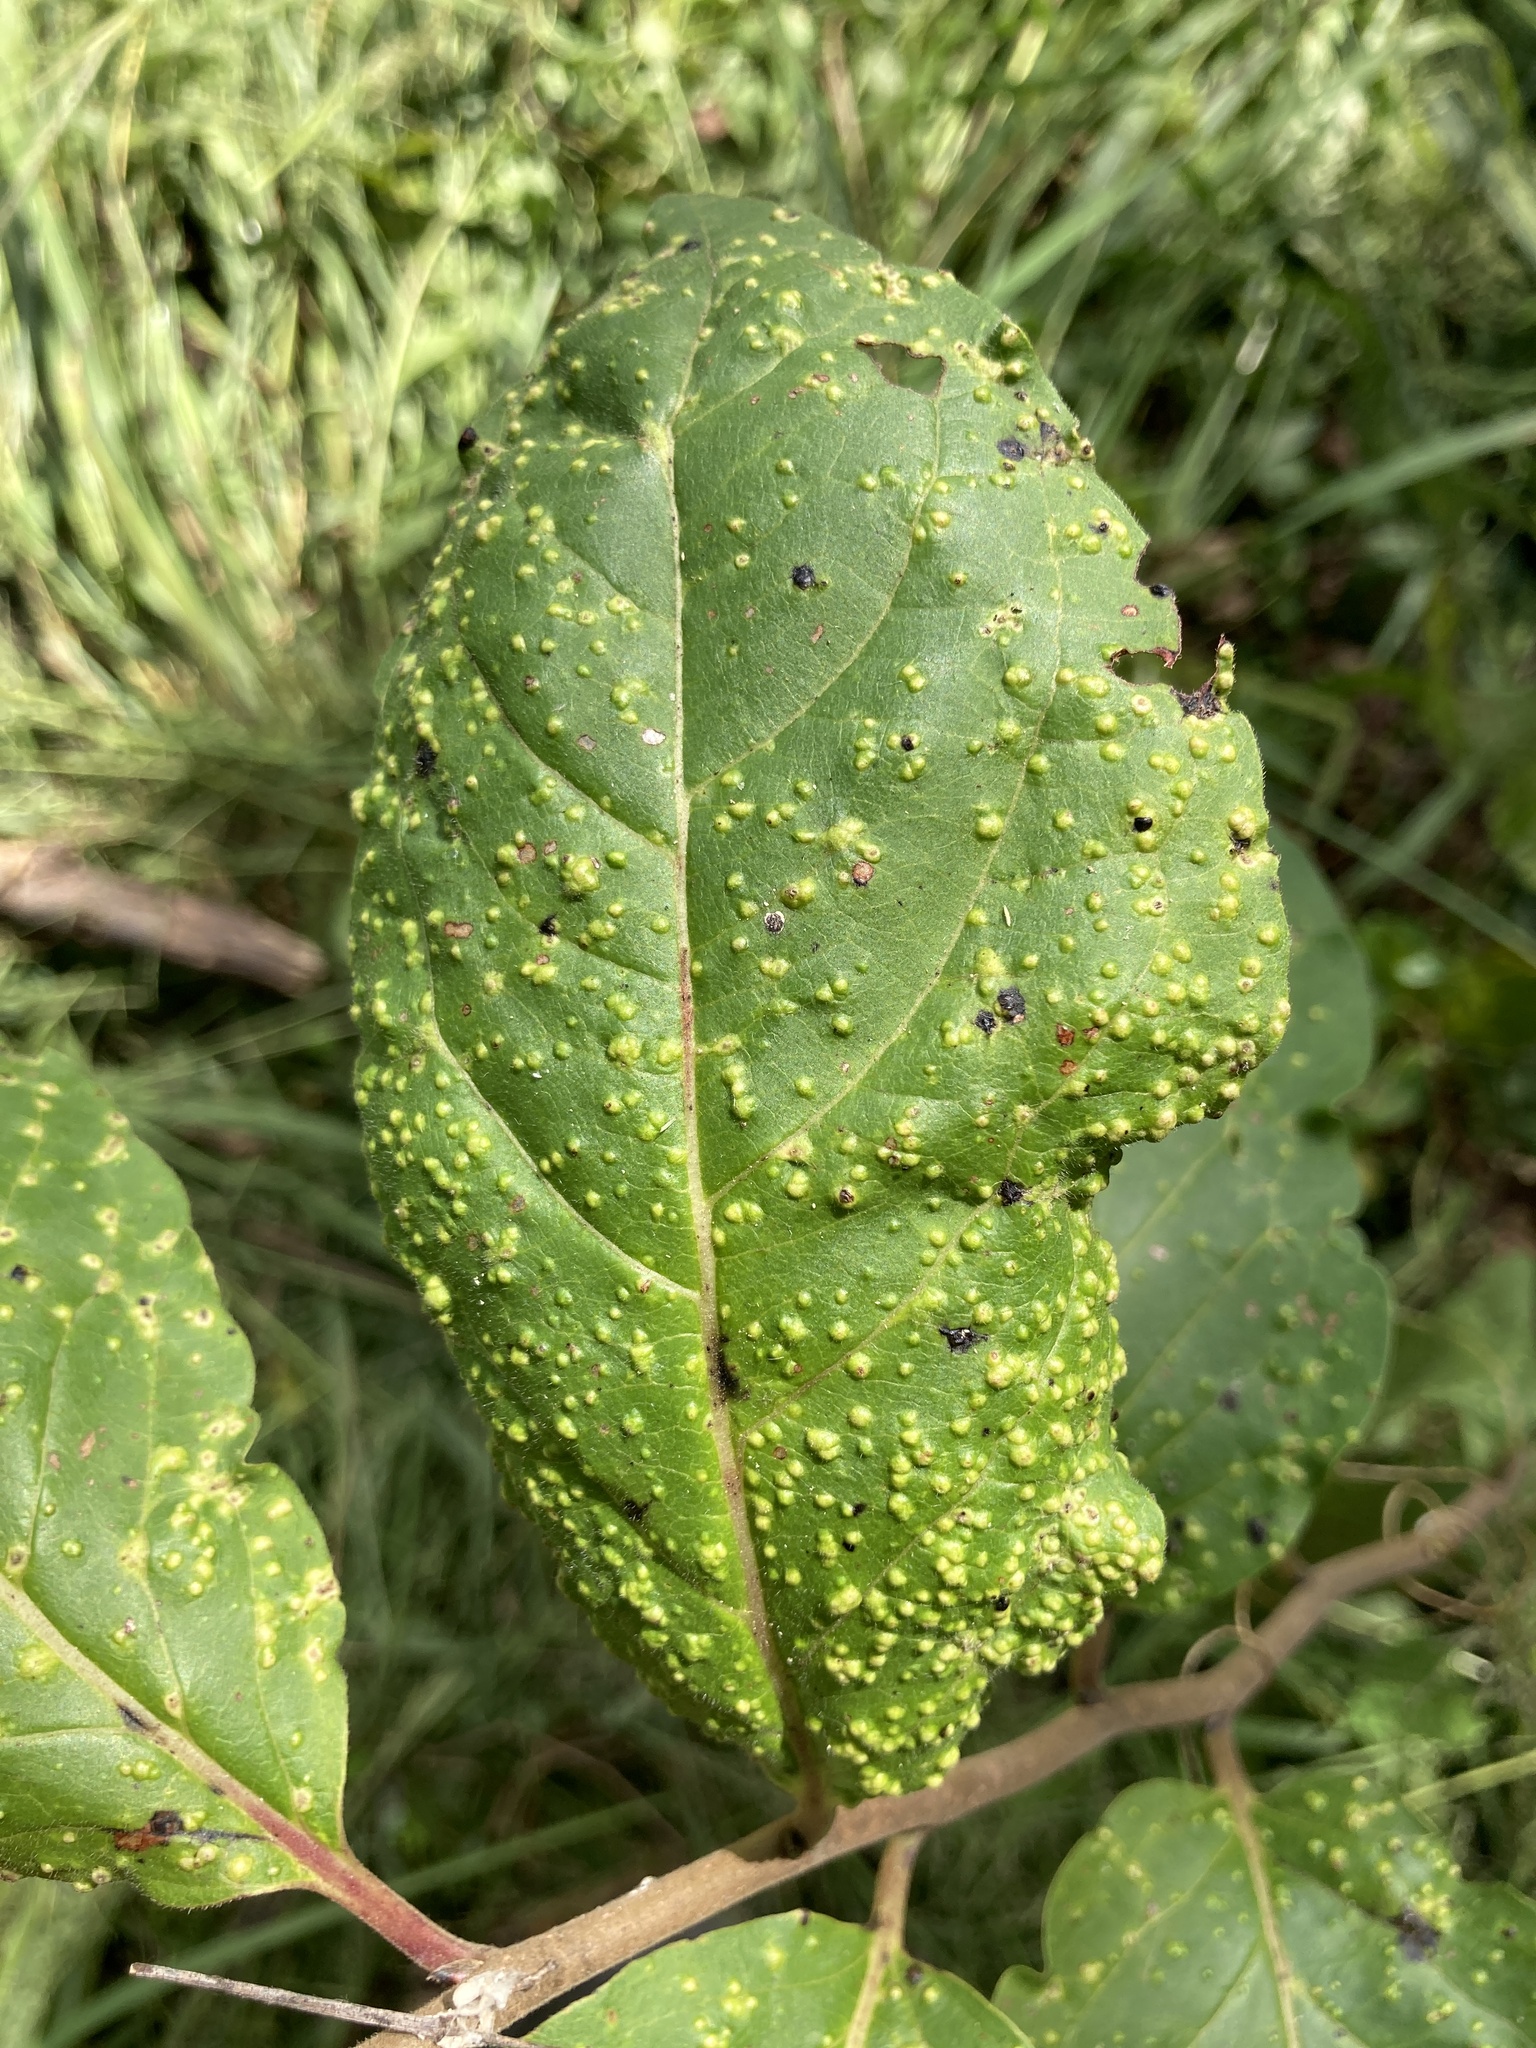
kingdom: Animalia
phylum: Arthropoda
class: Arachnida
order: Trombidiformes
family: Eriophyidae
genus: Aceria
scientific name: Aceria
